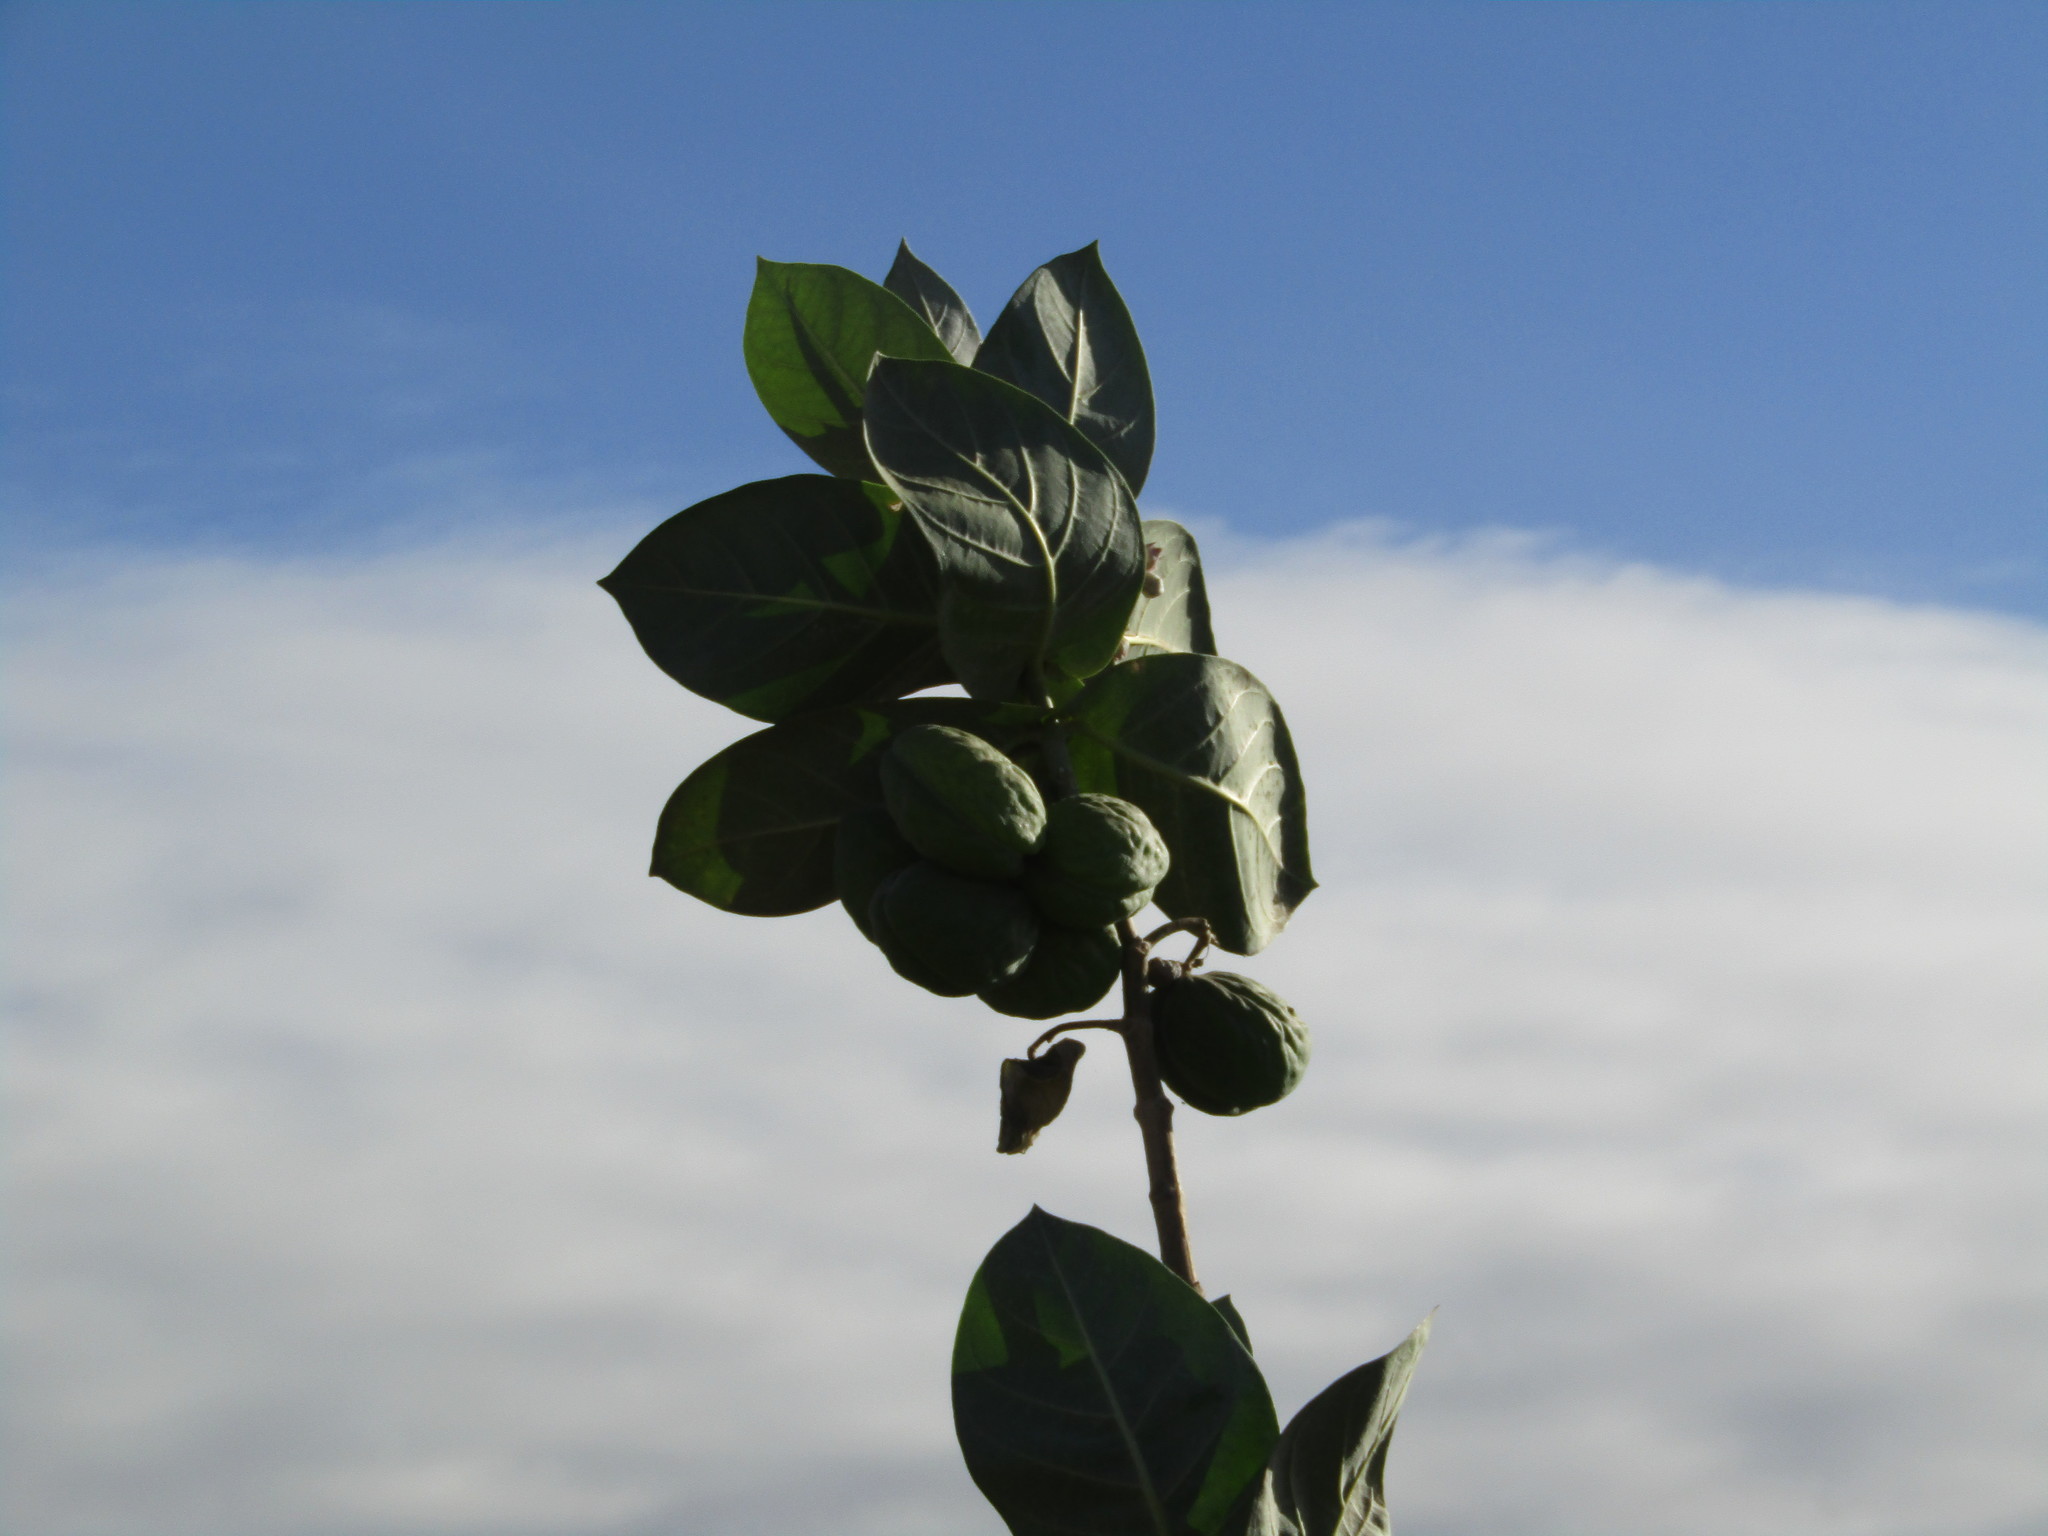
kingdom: Plantae
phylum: Tracheophyta
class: Magnoliopsida
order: Gentianales
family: Apocynaceae
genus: Calotropis
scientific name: Calotropis procera
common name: Roostertree
